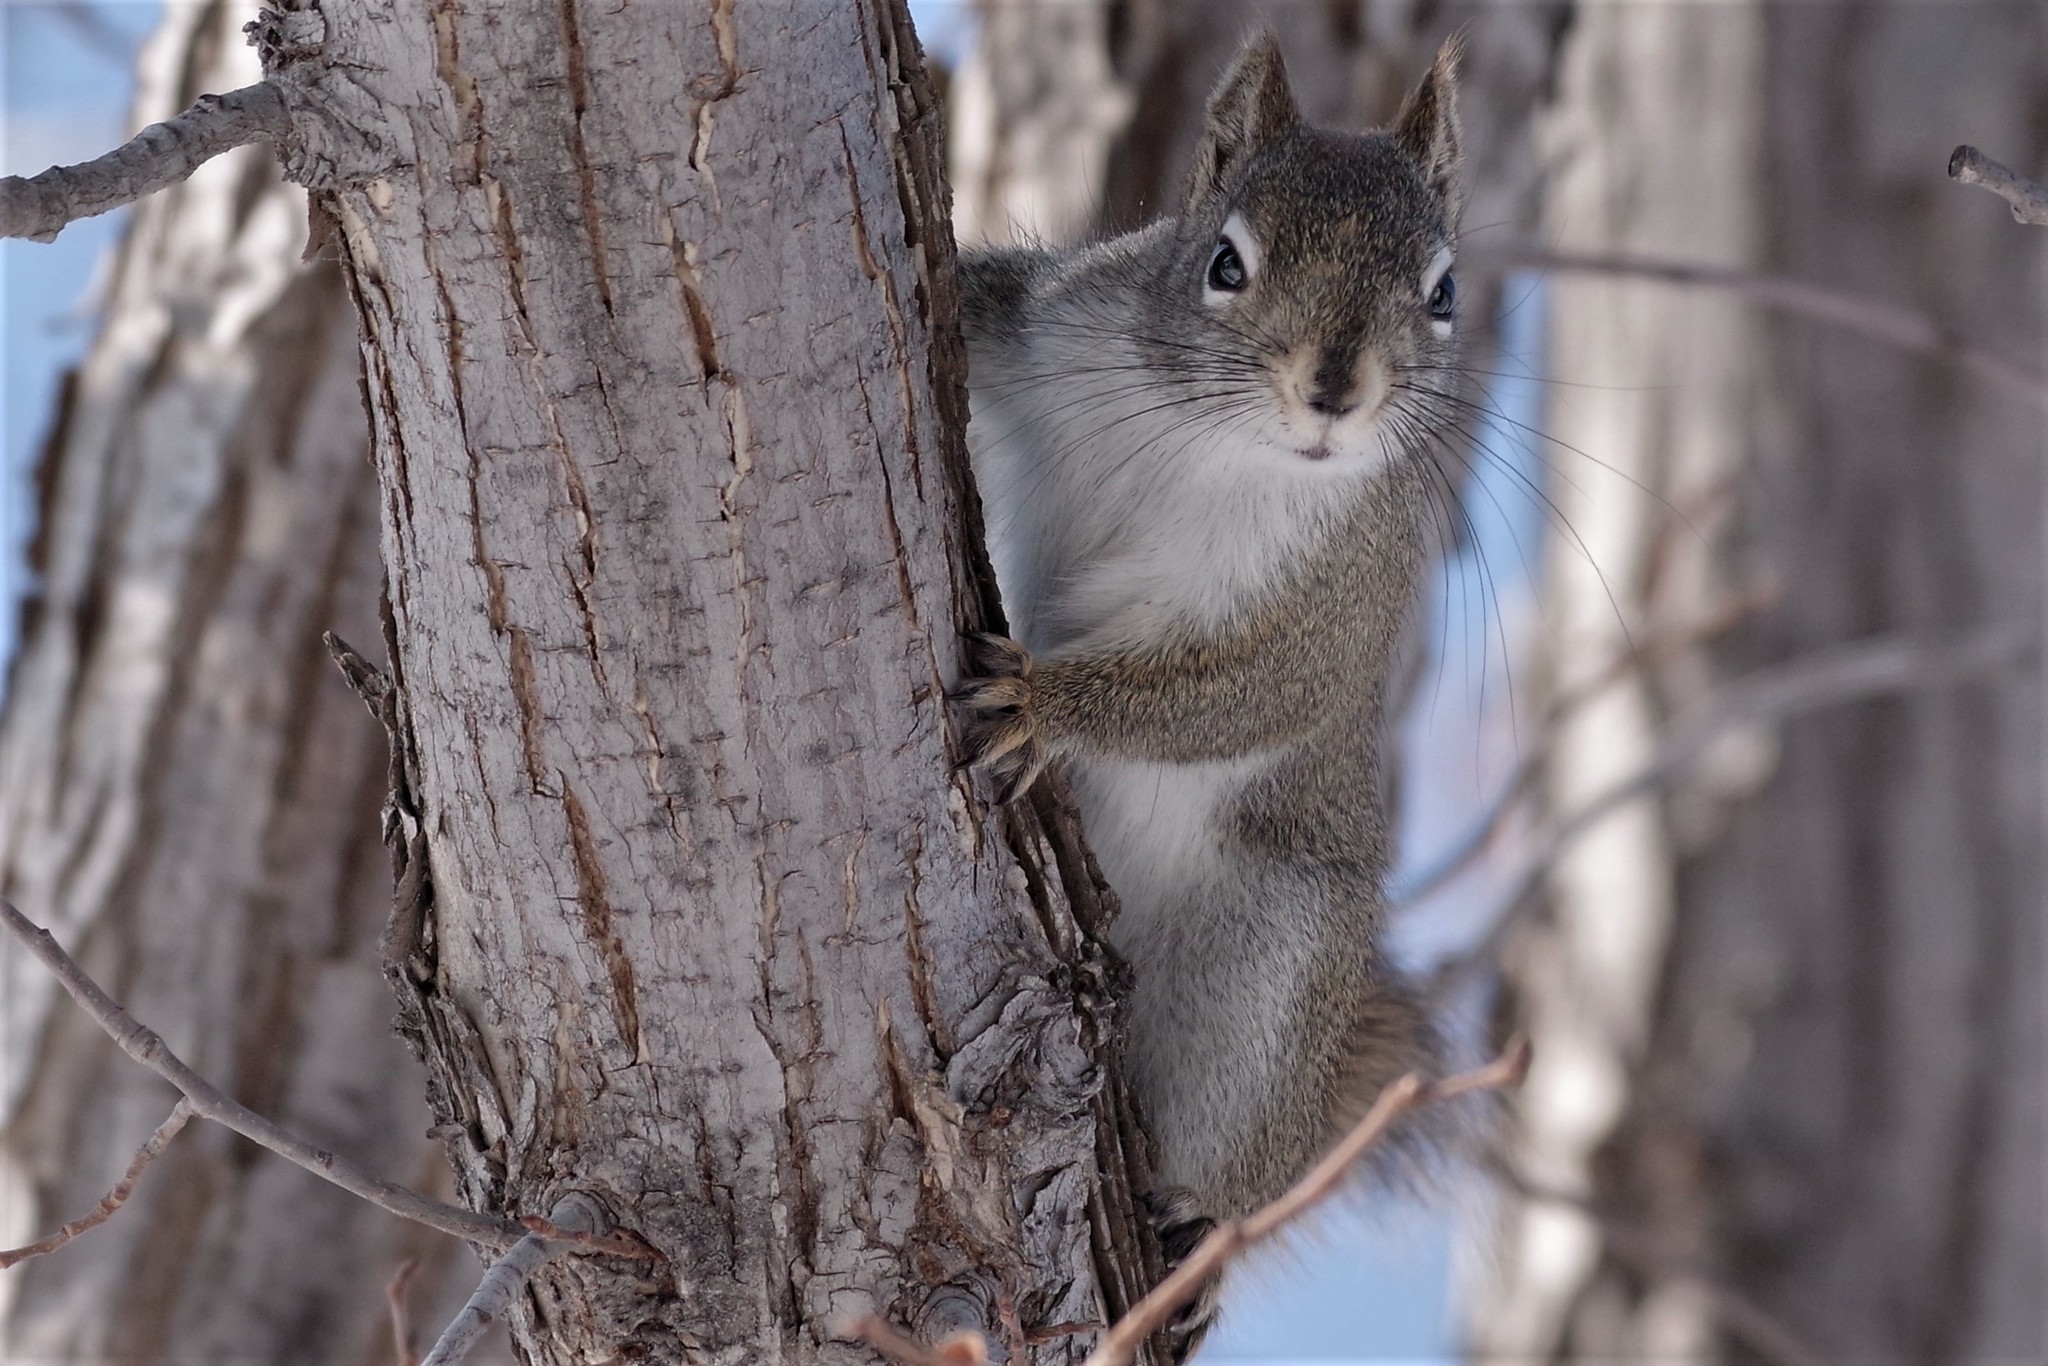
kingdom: Animalia
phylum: Chordata
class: Mammalia
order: Rodentia
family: Sciuridae
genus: Tamiasciurus
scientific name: Tamiasciurus hudsonicus
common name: Red squirrel
